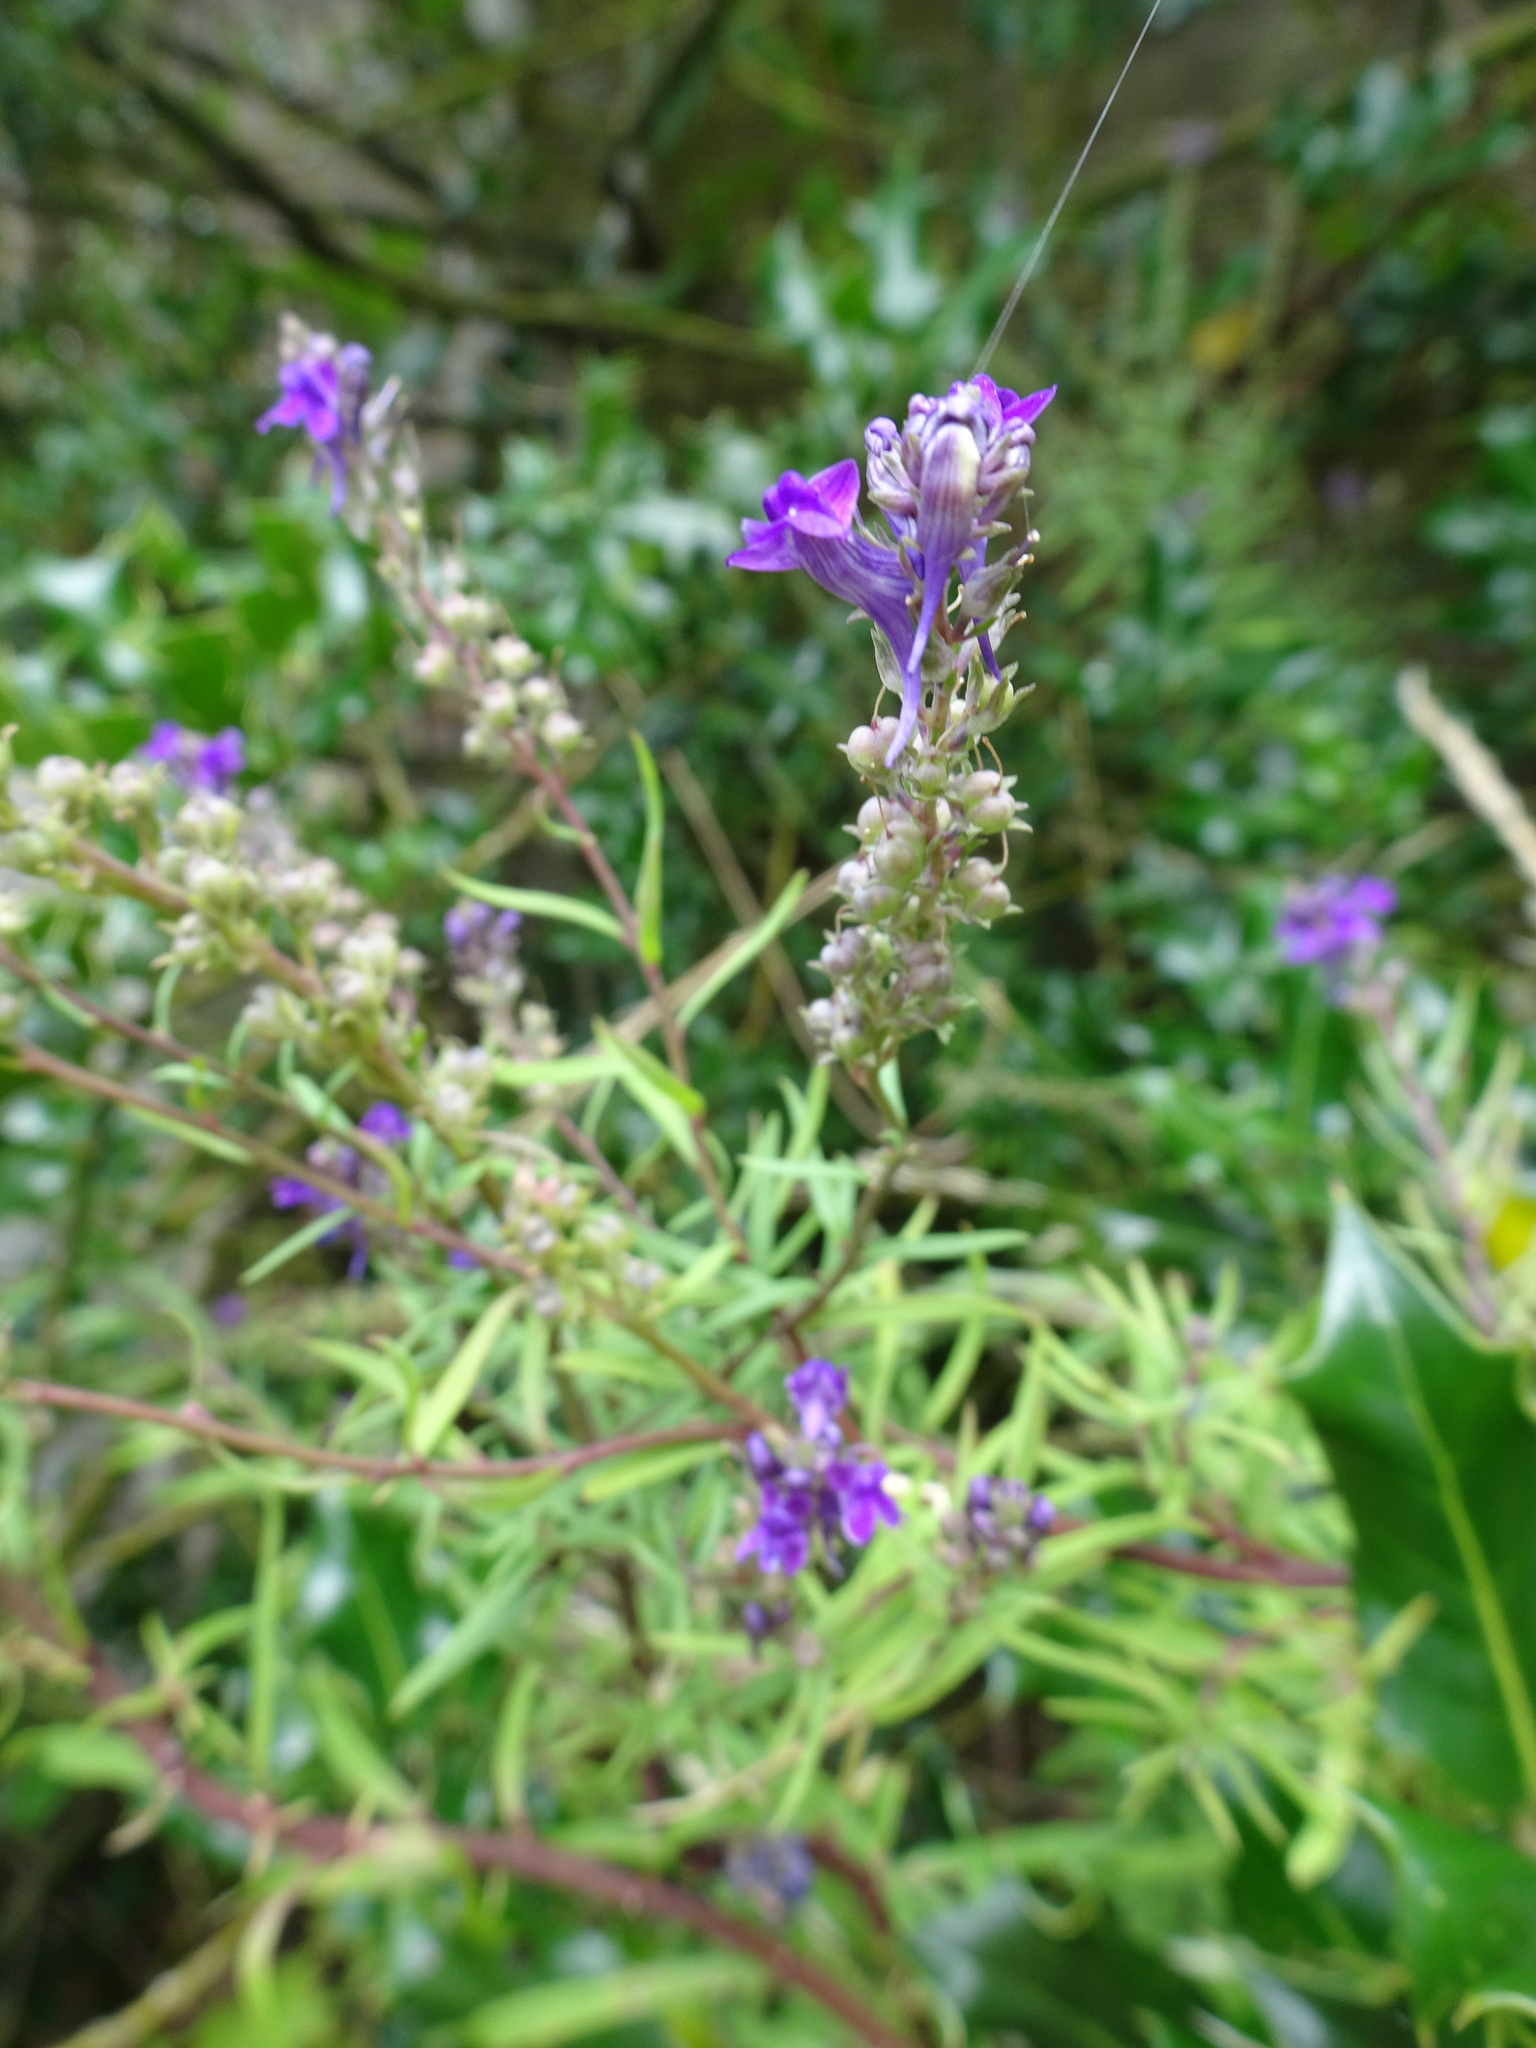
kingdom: Plantae
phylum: Tracheophyta
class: Magnoliopsida
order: Lamiales
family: Plantaginaceae
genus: Linaria
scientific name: Linaria purpurea
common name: Purple toadflax
